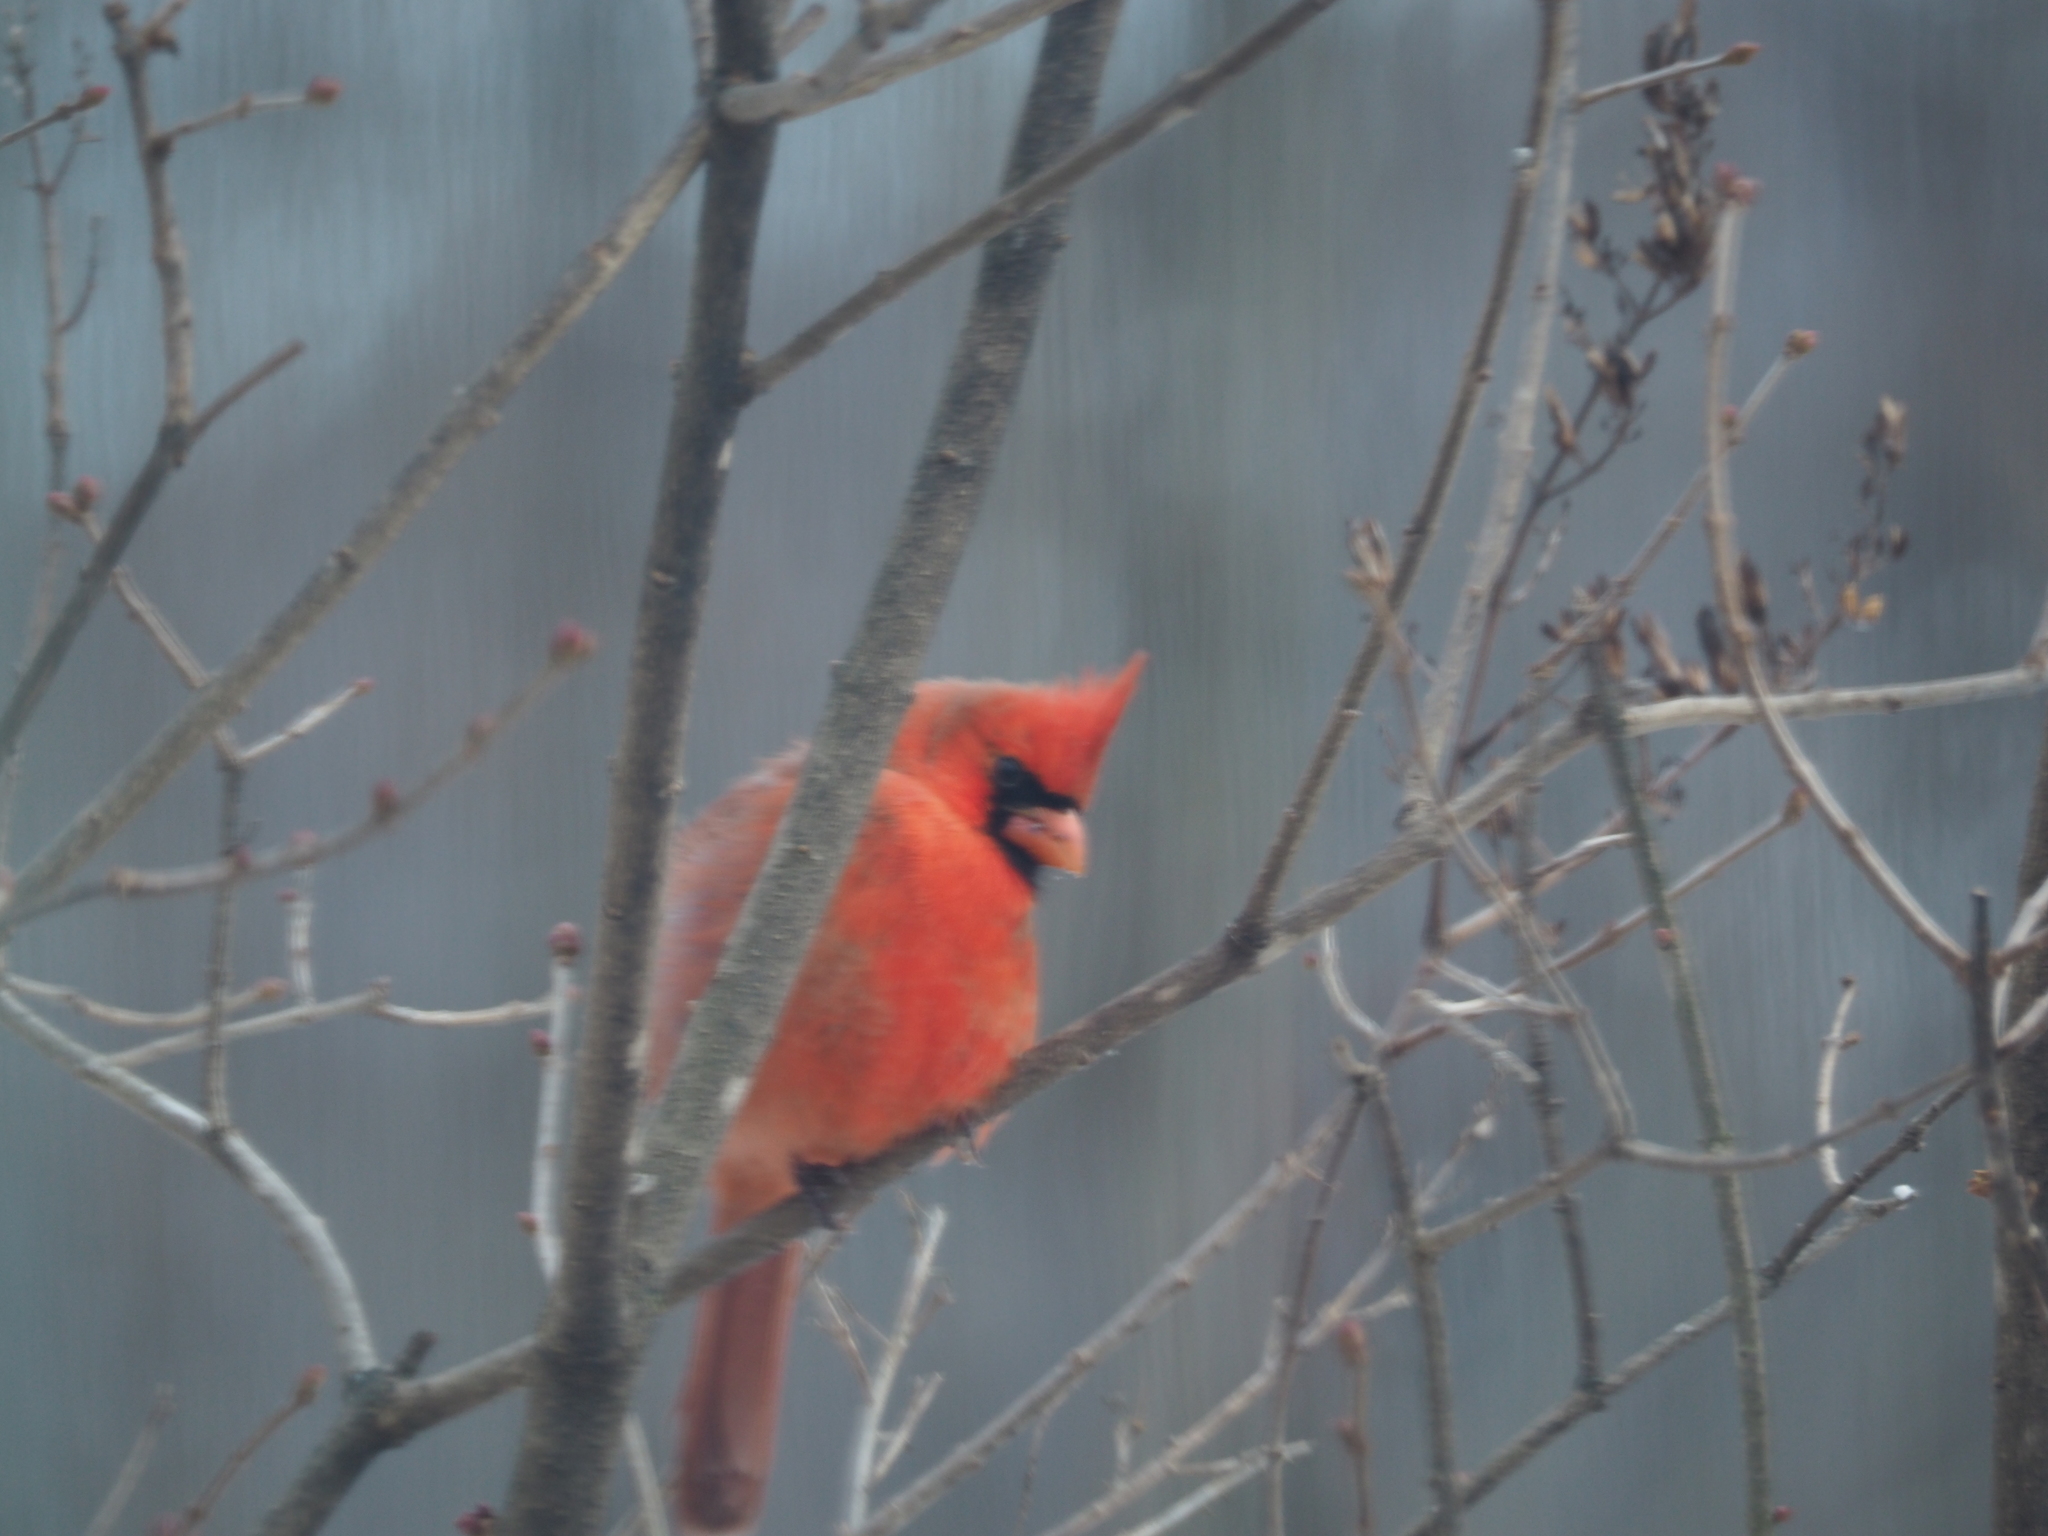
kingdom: Animalia
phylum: Chordata
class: Aves
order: Passeriformes
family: Cardinalidae
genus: Cardinalis
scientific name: Cardinalis cardinalis
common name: Northern cardinal
